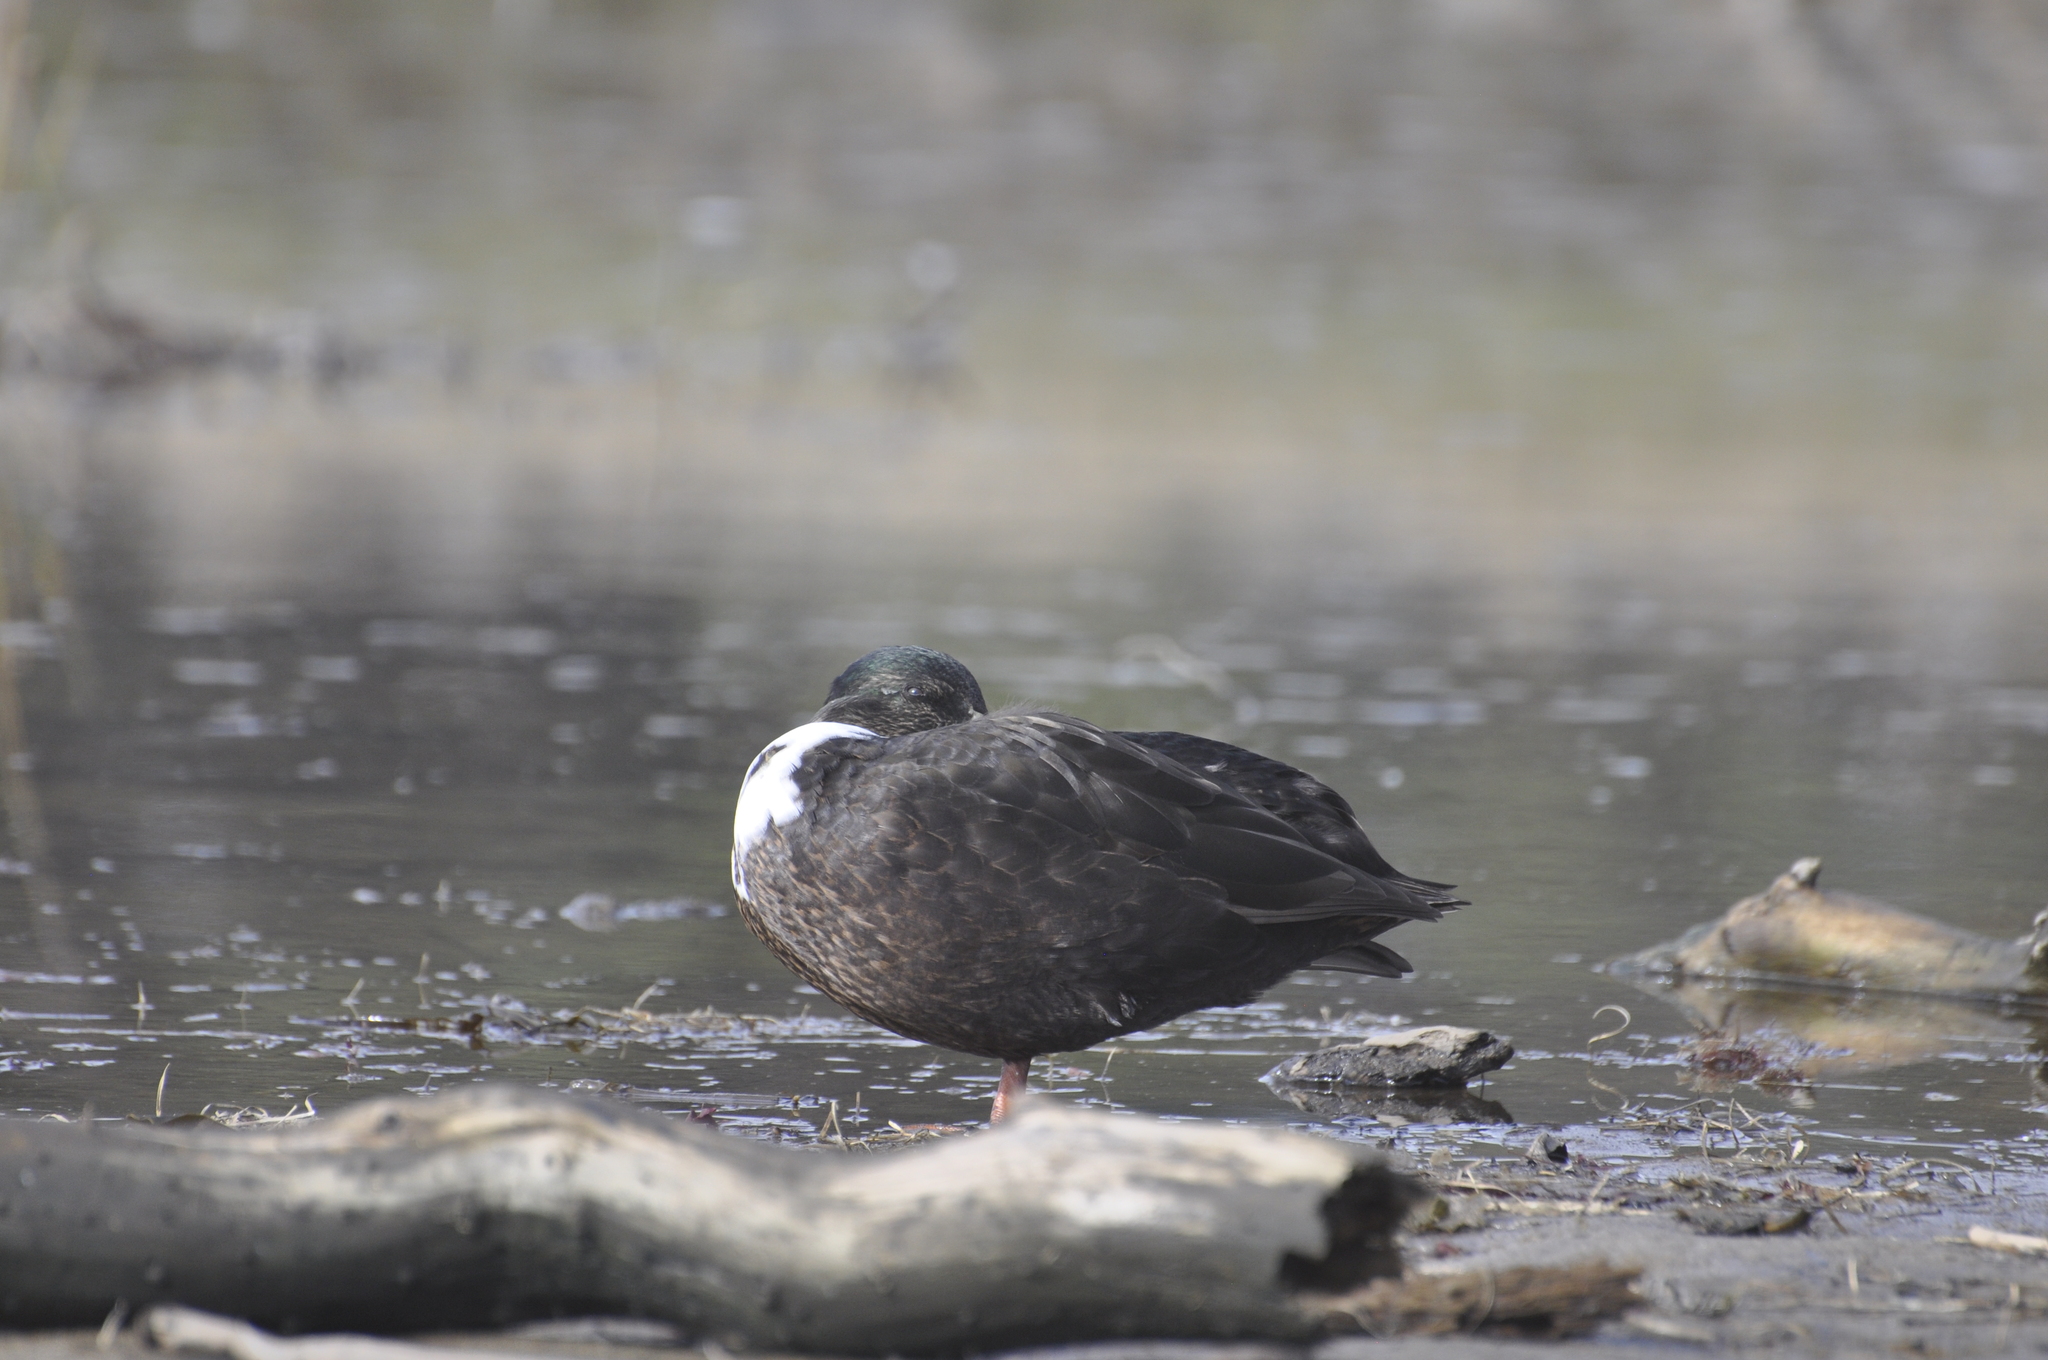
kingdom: Animalia
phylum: Chordata
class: Aves
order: Anseriformes
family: Anatidae
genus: Anas
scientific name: Anas platyrhynchos
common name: Mallard
